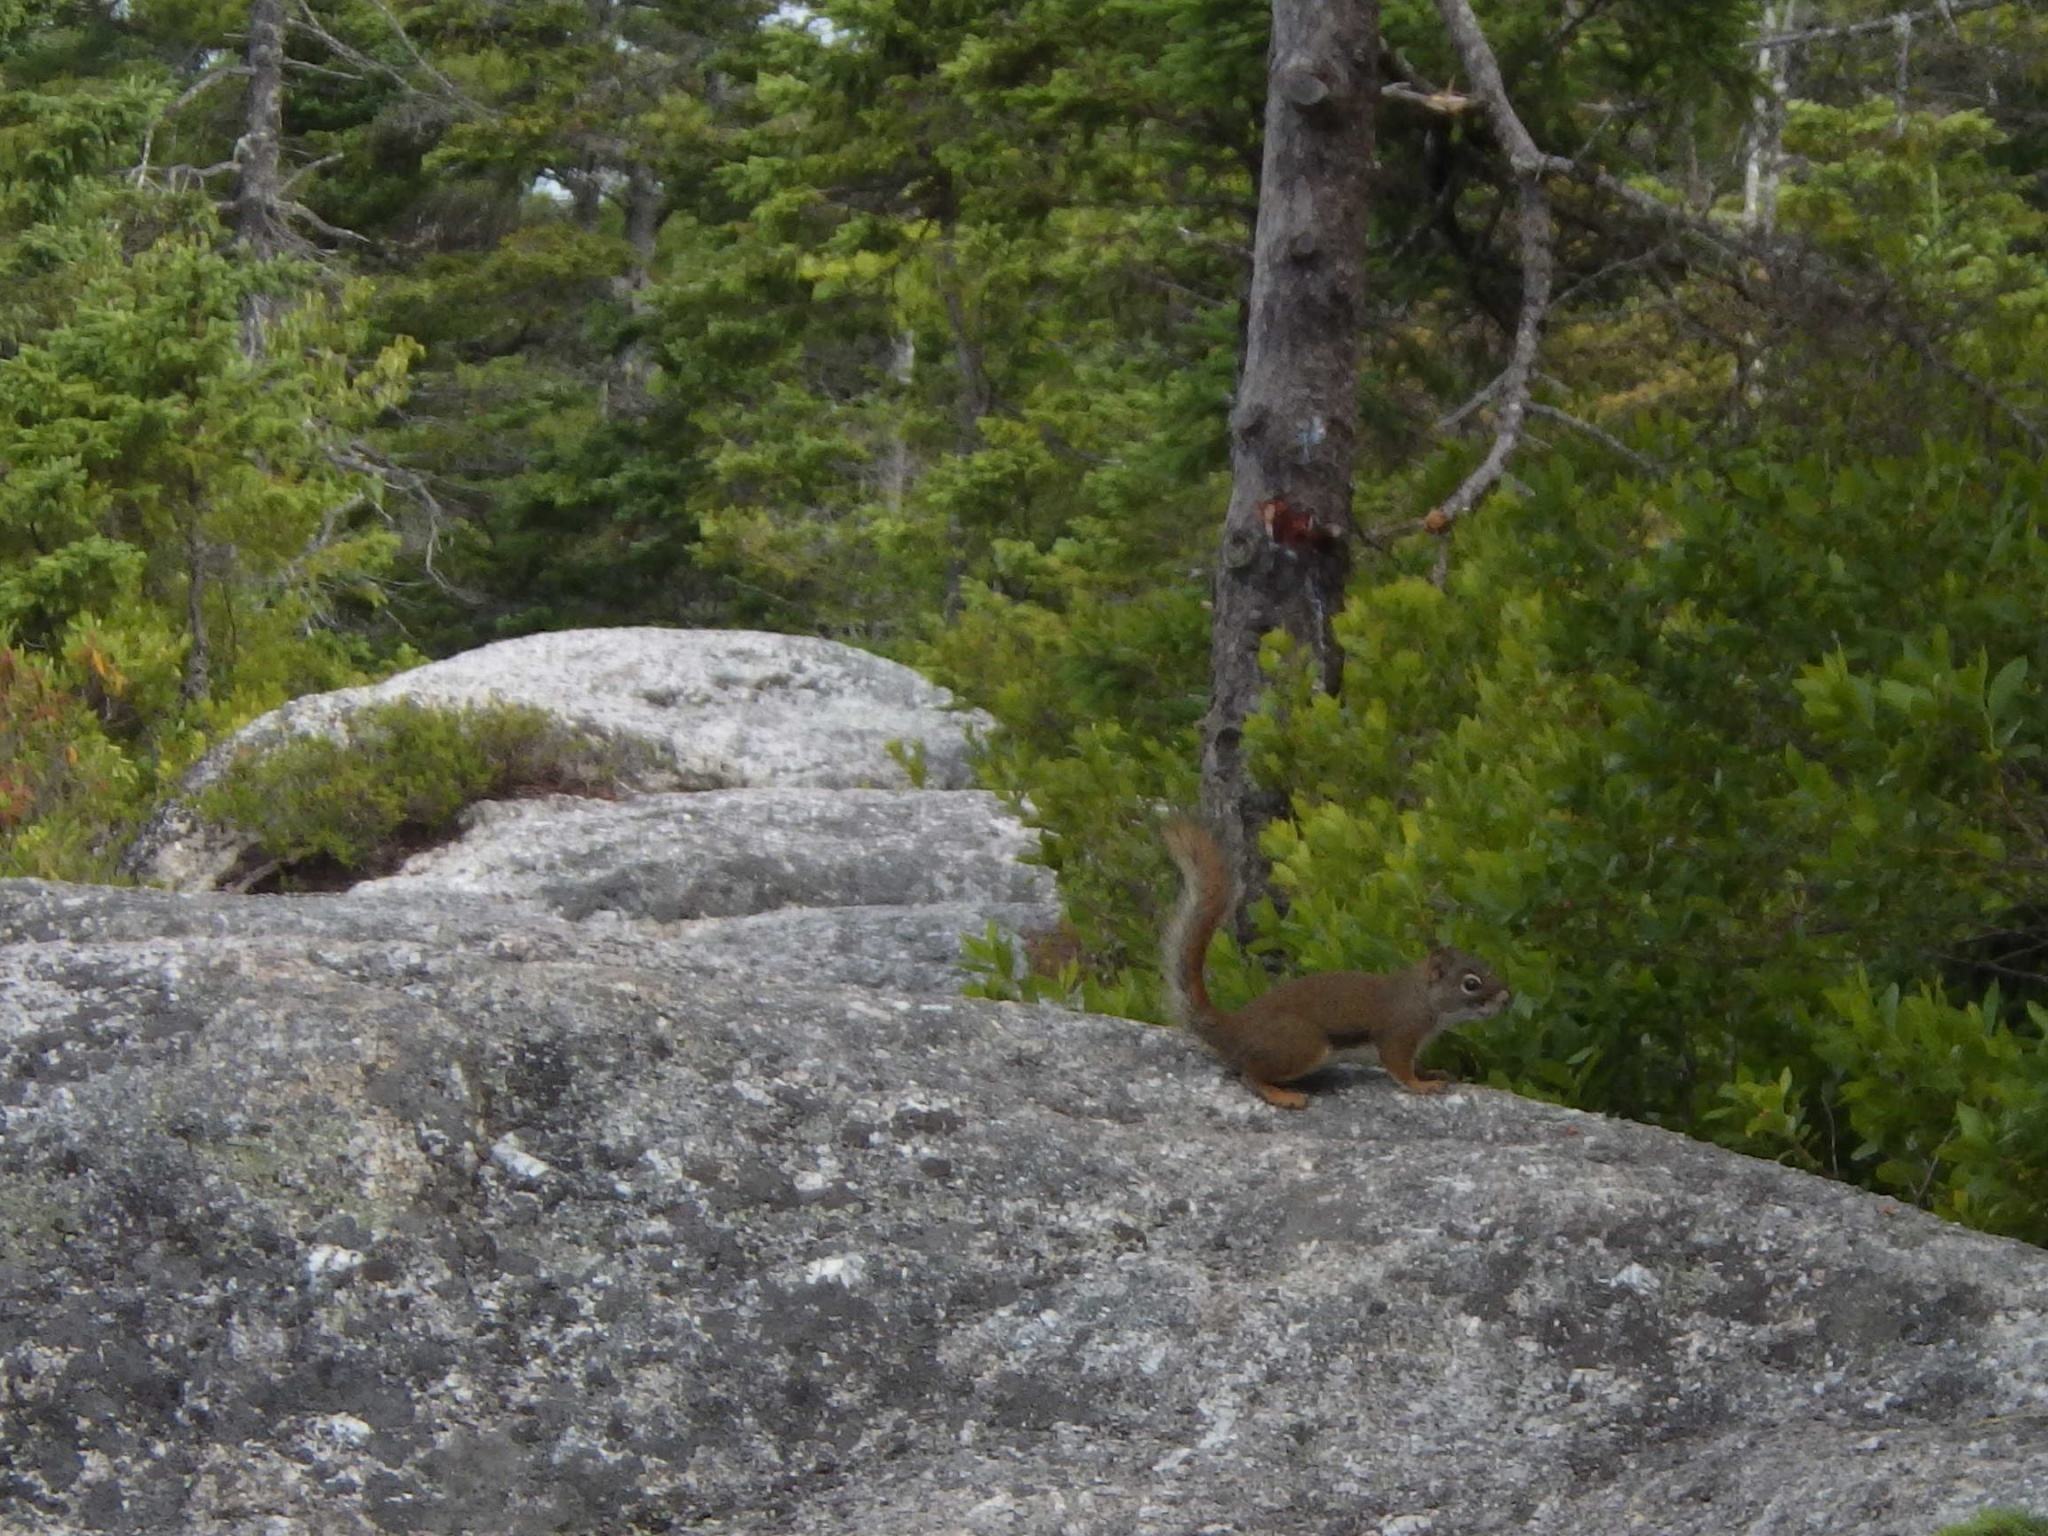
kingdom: Animalia
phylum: Chordata
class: Mammalia
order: Rodentia
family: Sciuridae
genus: Tamiasciurus
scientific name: Tamiasciurus hudsonicus
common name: Red squirrel
